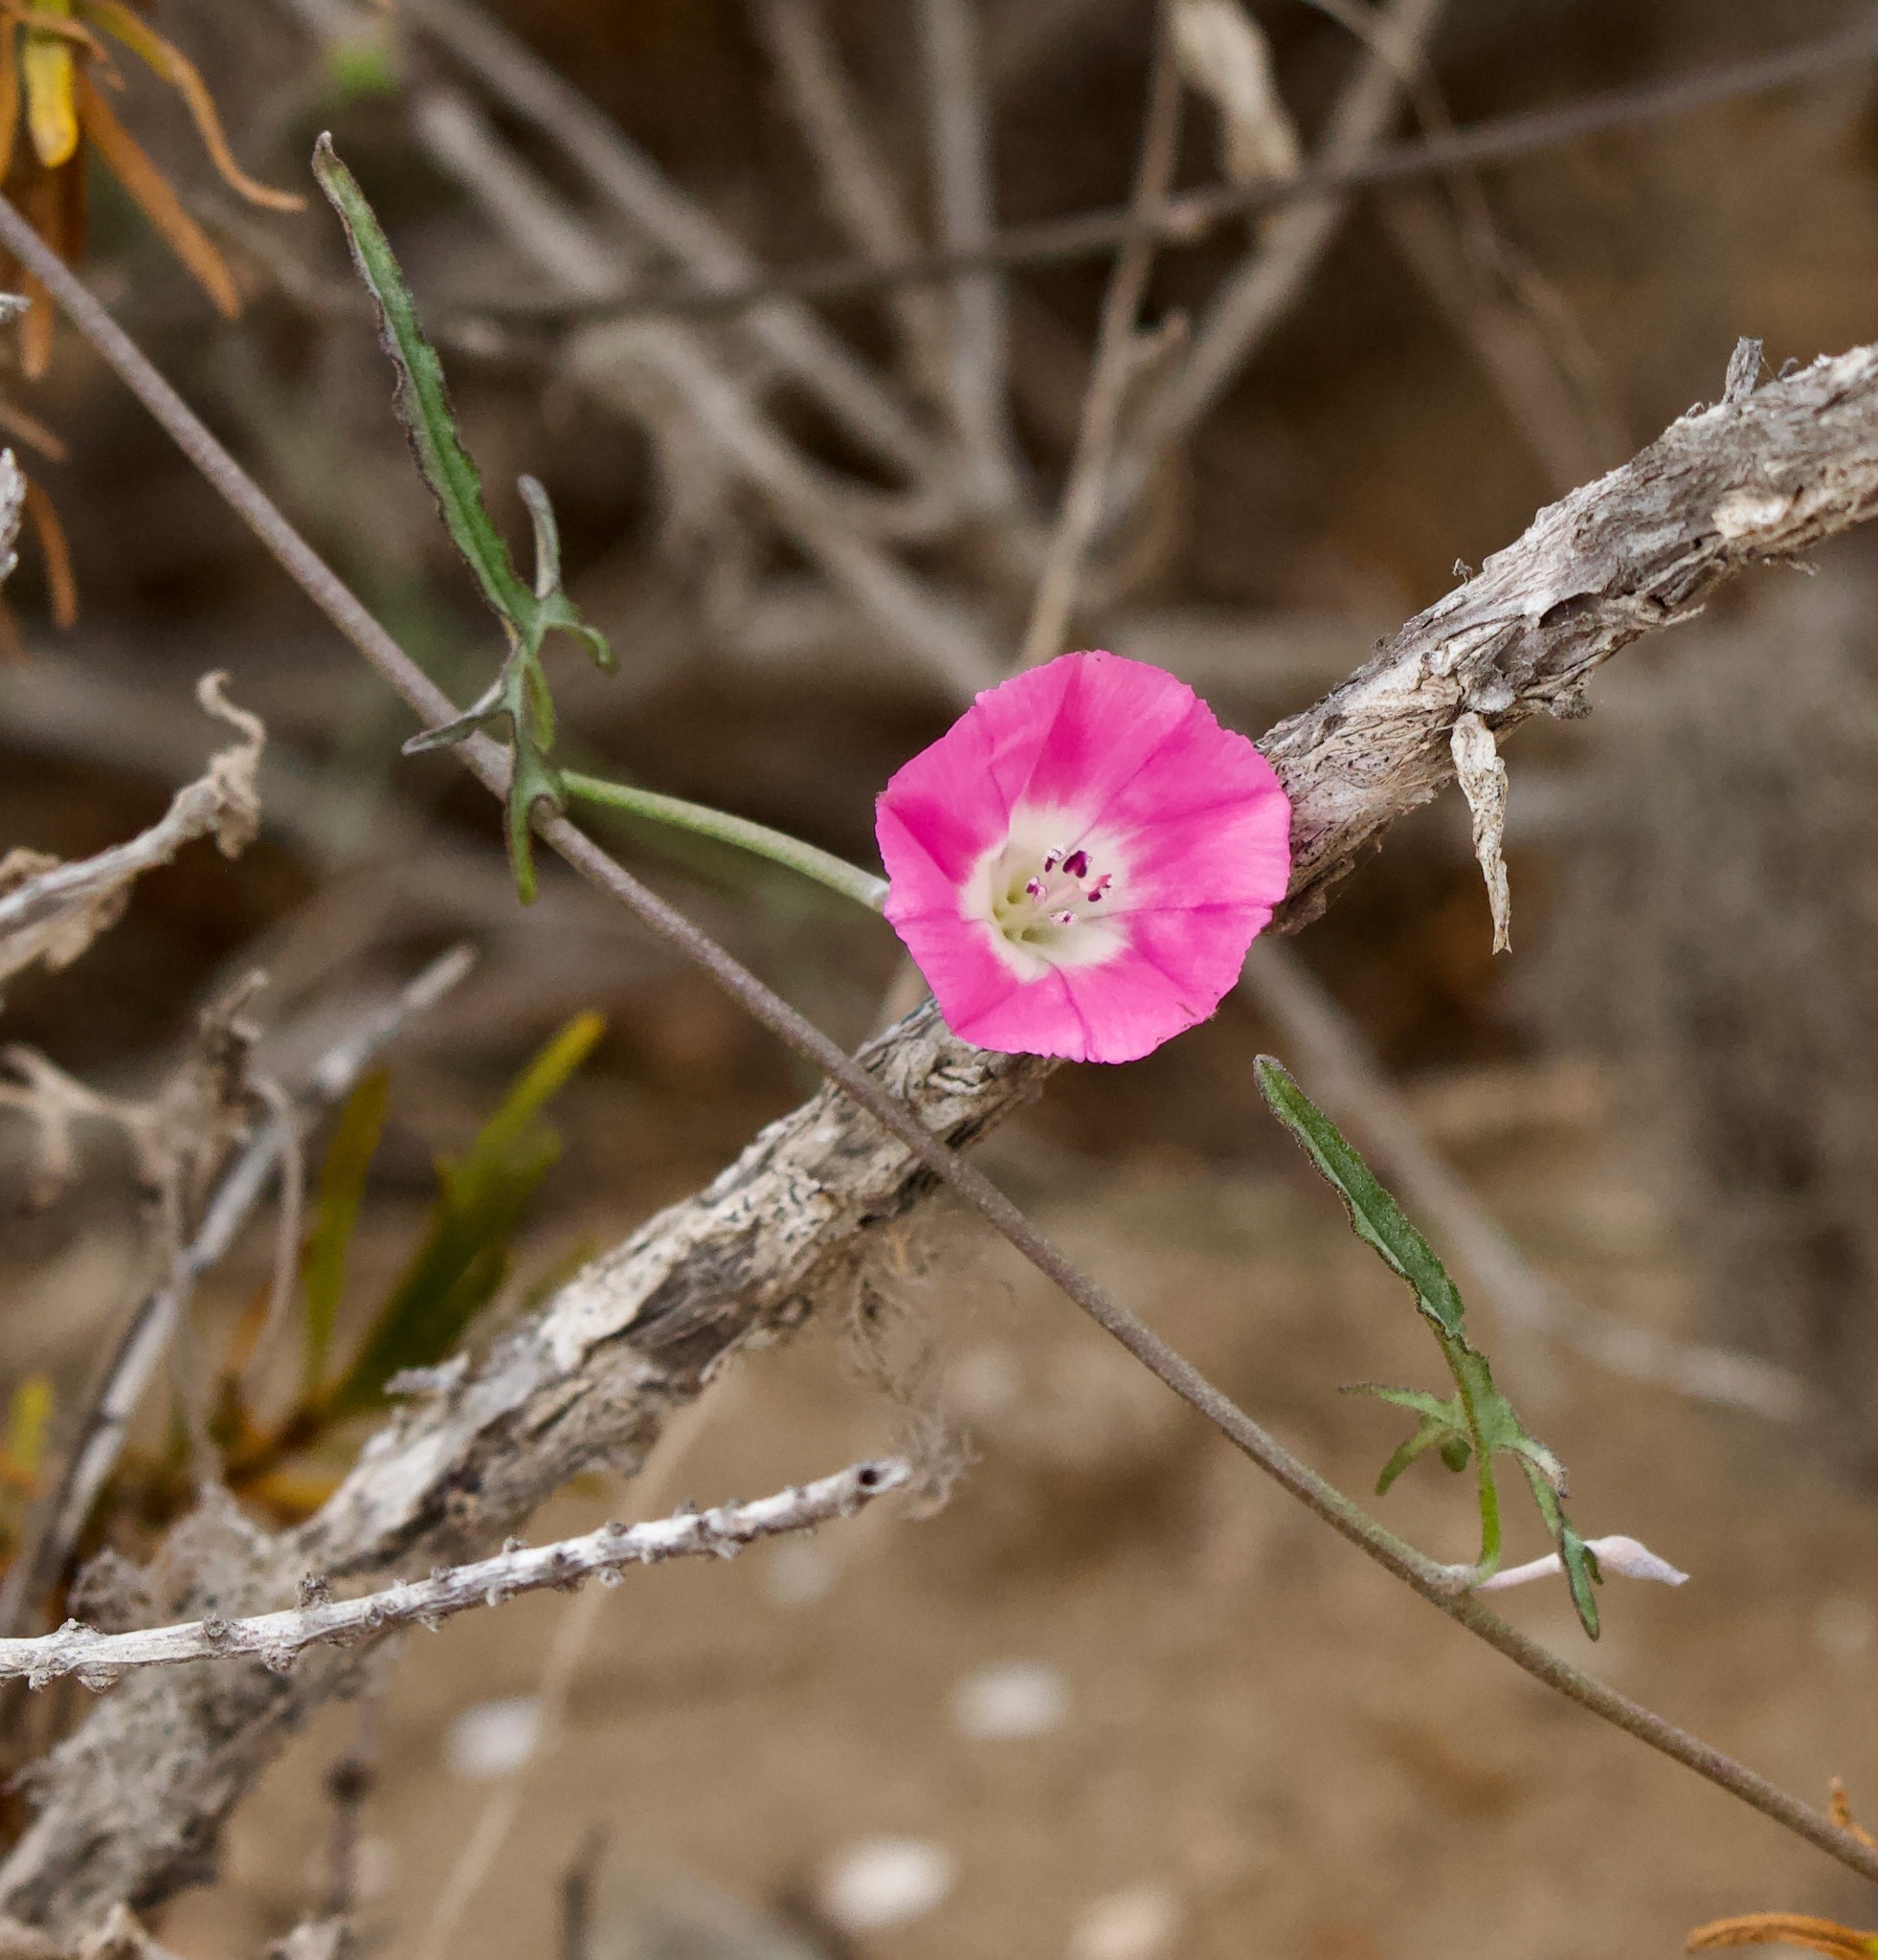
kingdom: Plantae
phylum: Tracheophyta
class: Magnoliopsida
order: Solanales
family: Convolvulaceae
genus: Convolvulus
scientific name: Convolvulus chilensis
